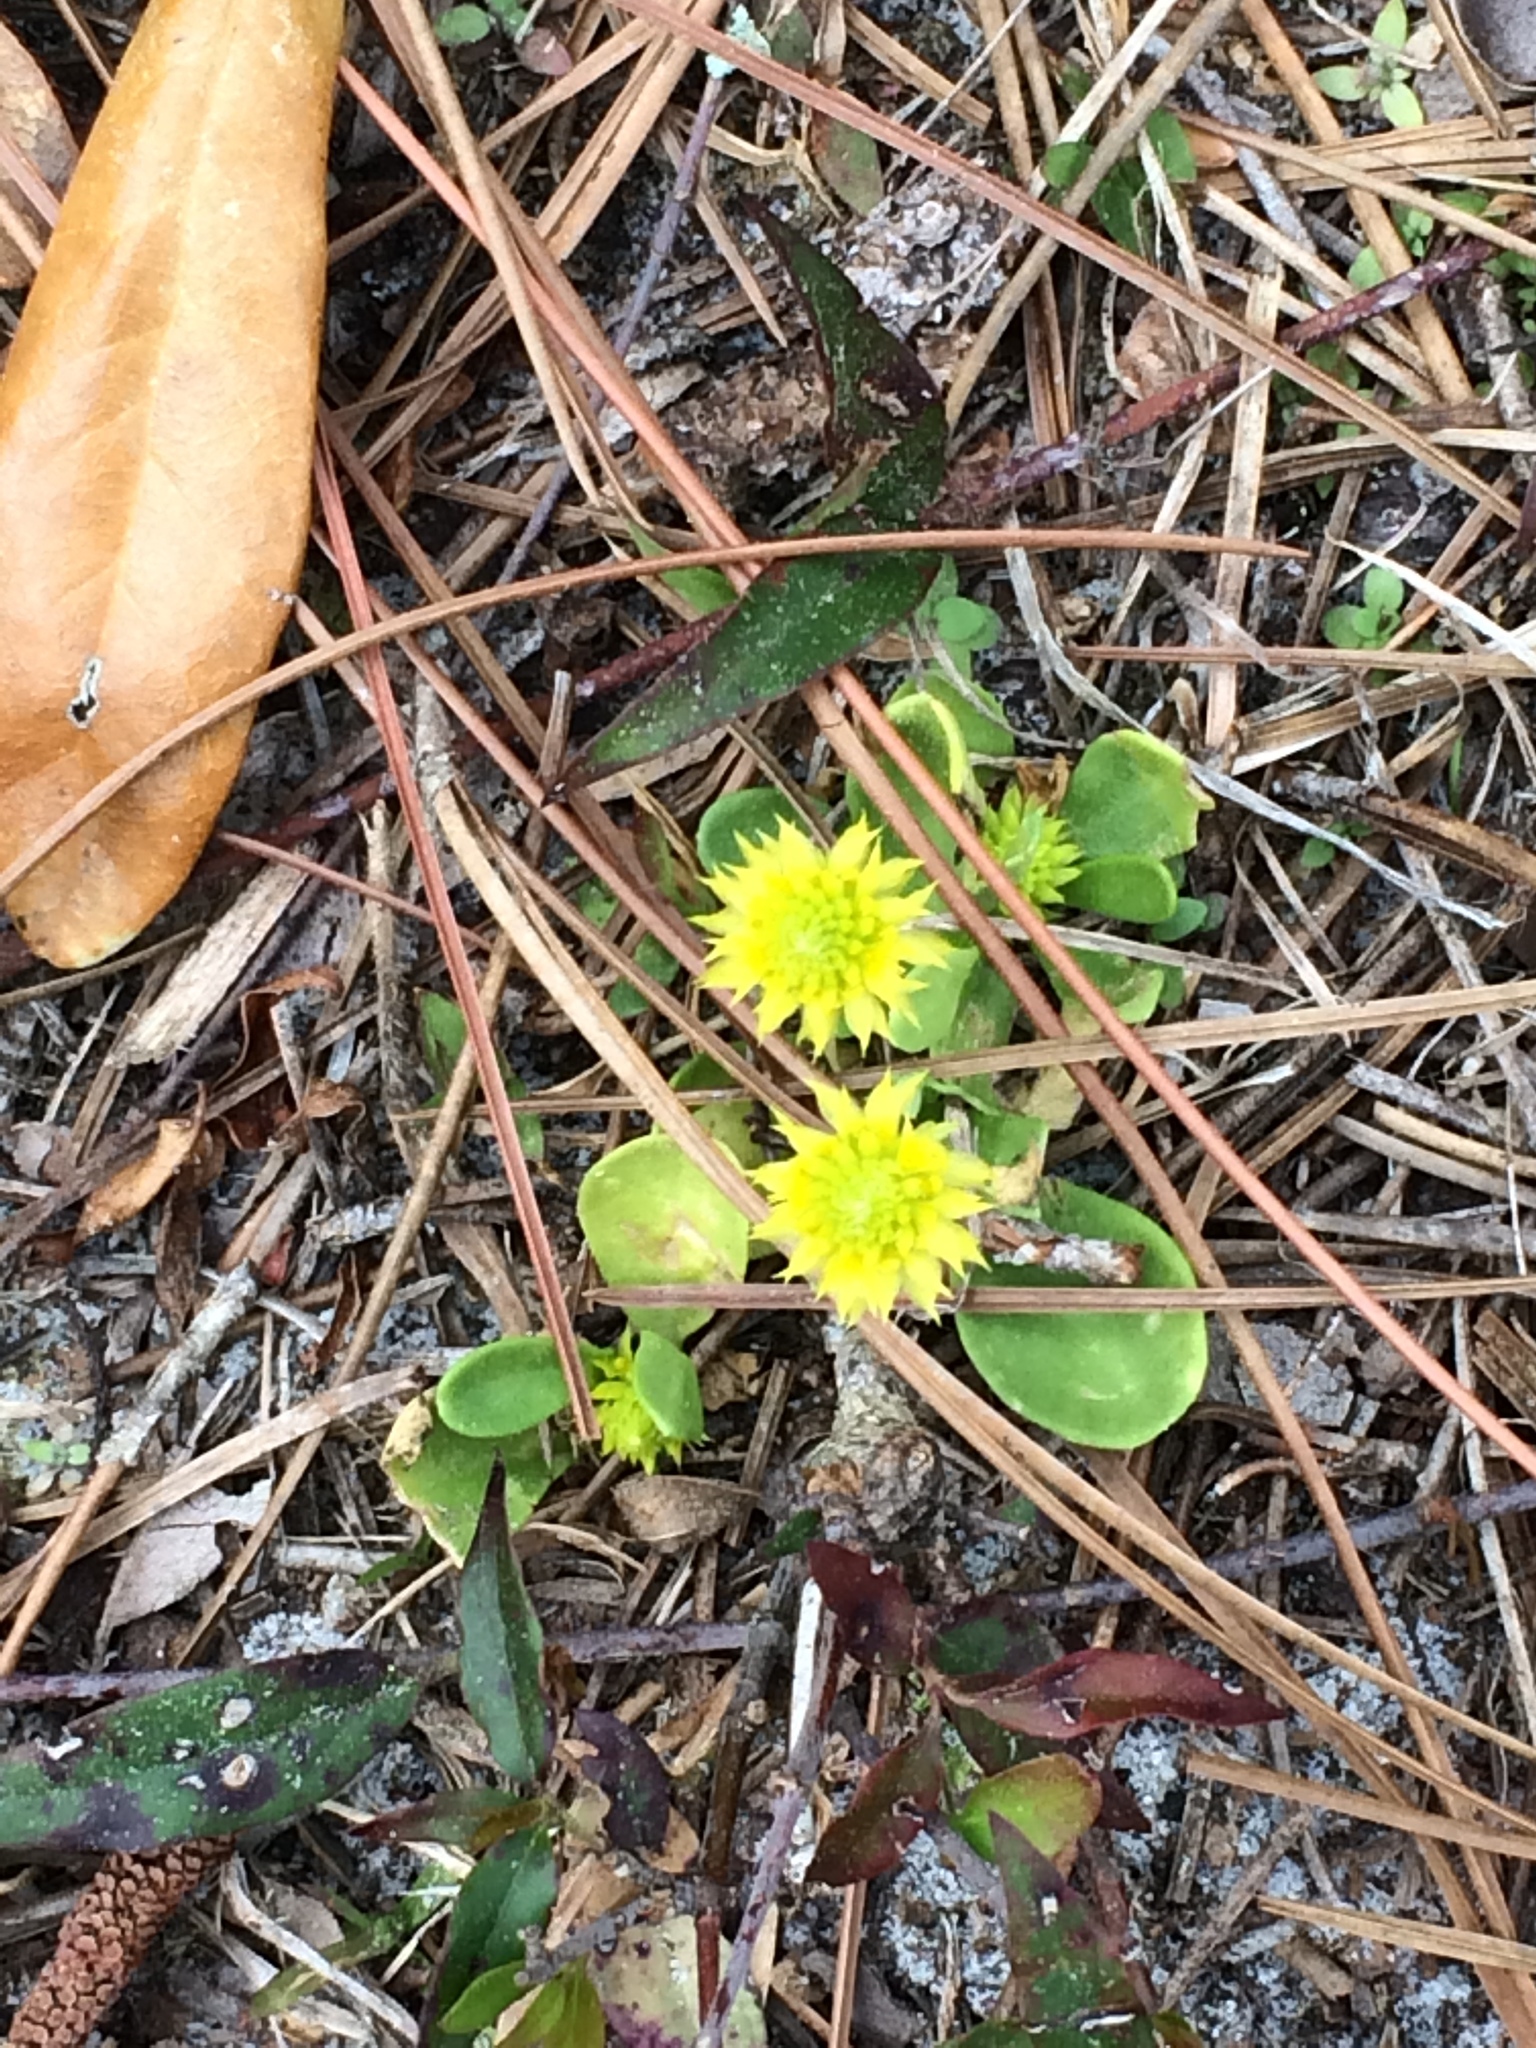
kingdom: Plantae
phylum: Tracheophyta
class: Magnoliopsida
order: Fabales
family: Polygalaceae
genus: Polygala
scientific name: Polygala nana
